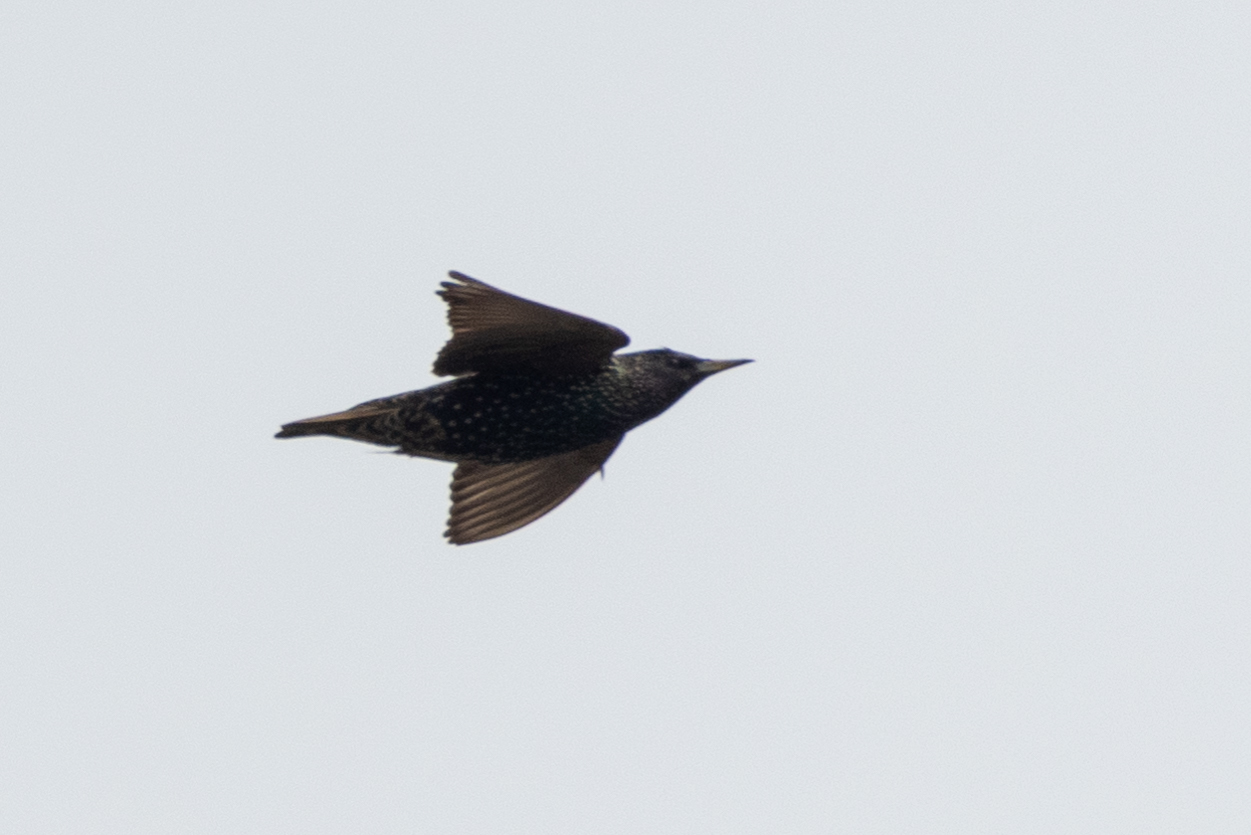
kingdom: Animalia
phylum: Chordata
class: Aves
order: Passeriformes
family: Sturnidae
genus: Sturnus
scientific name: Sturnus vulgaris
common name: Common starling
